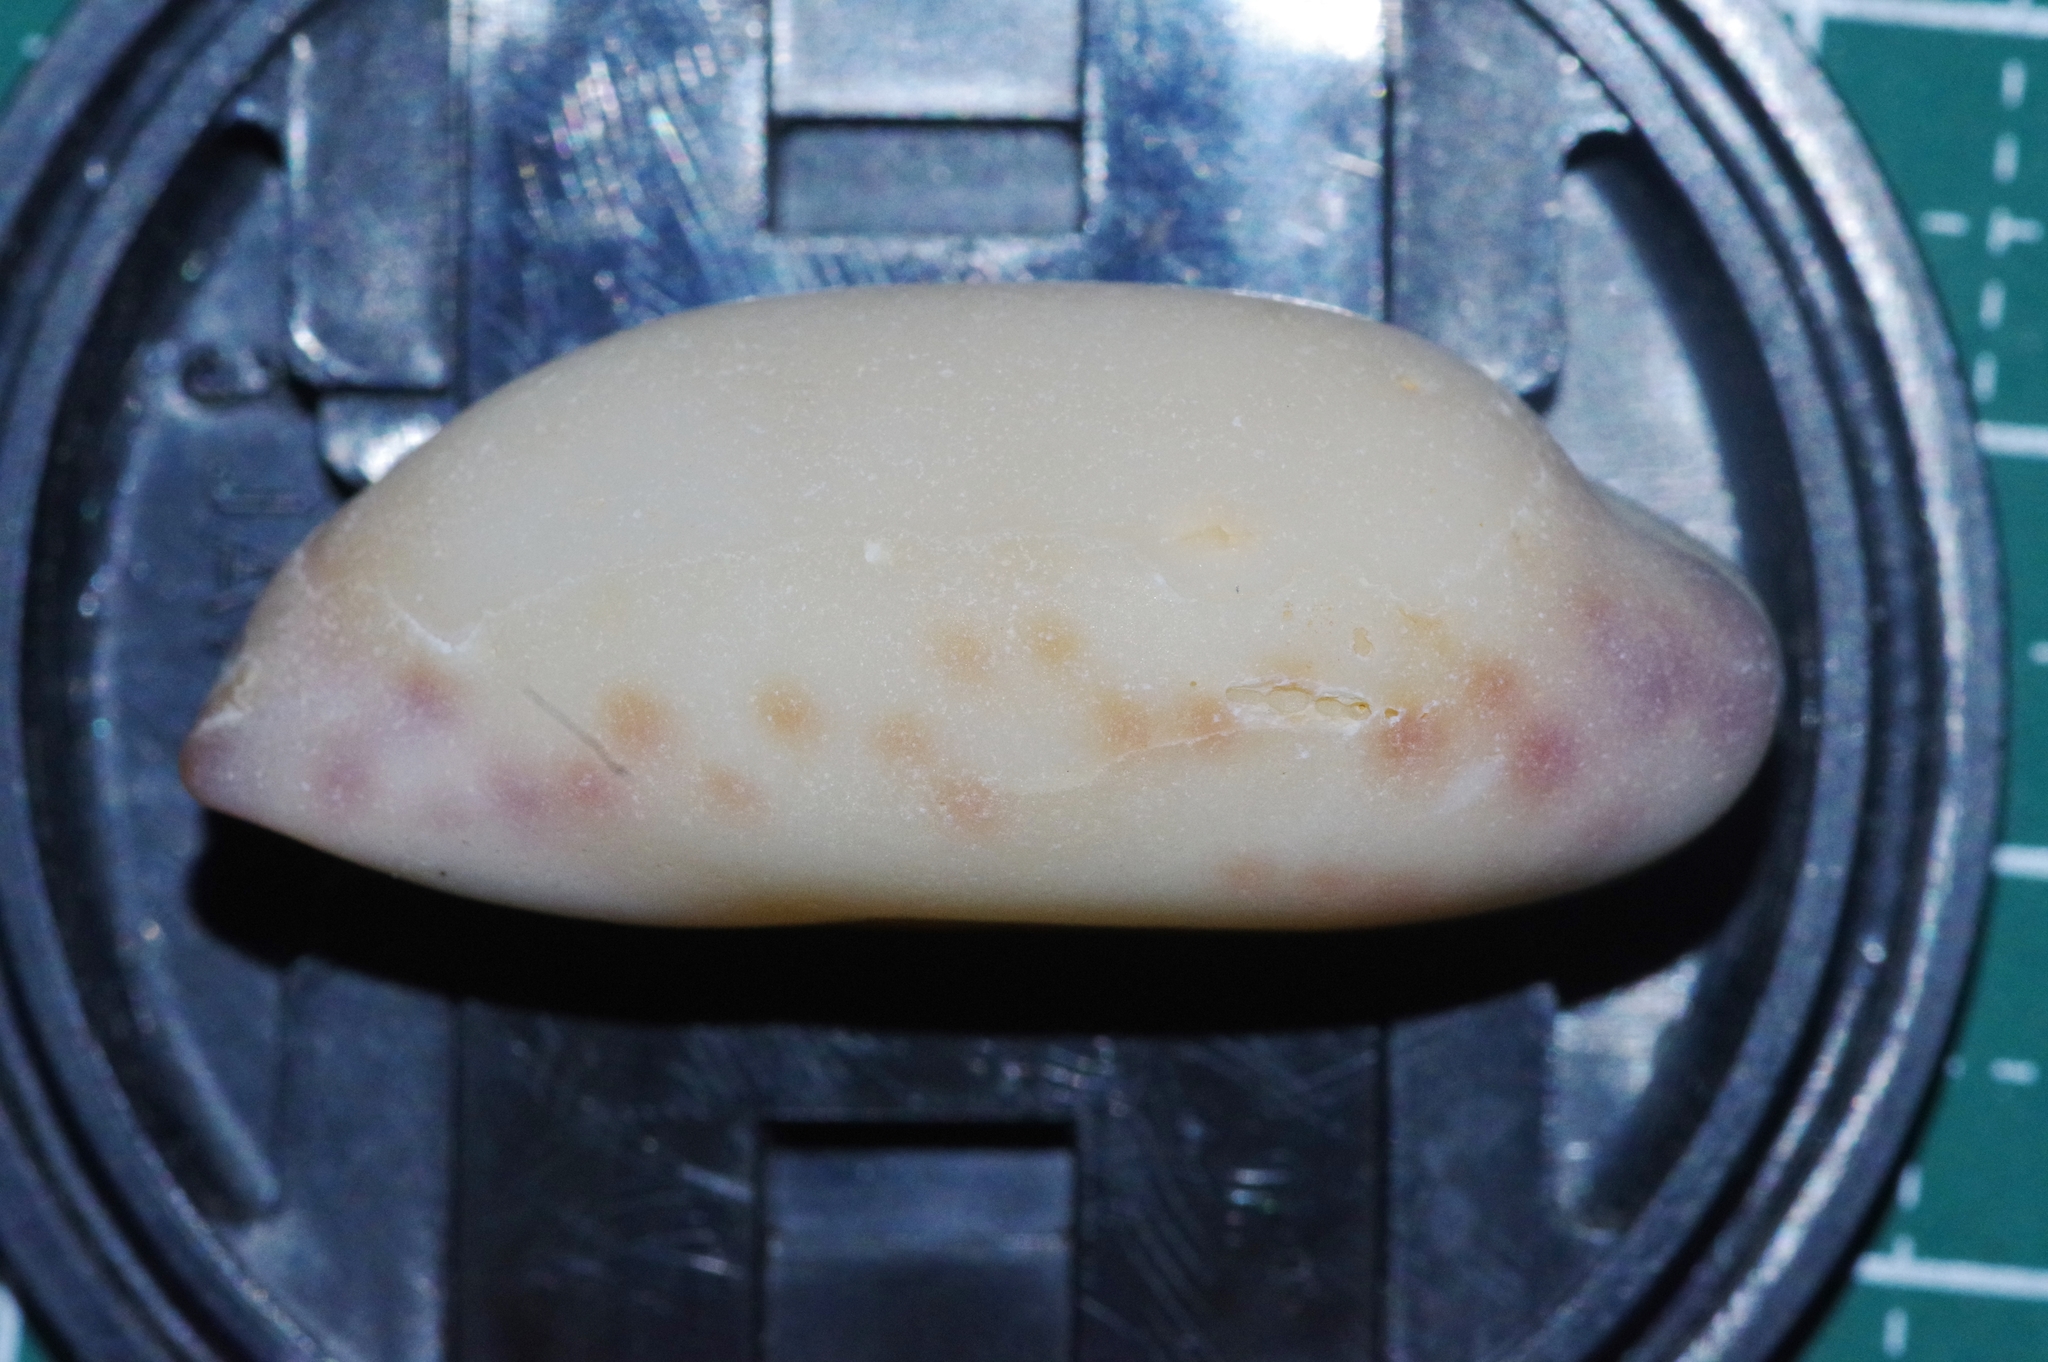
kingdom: Animalia
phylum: Mollusca
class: Gastropoda
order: Littorinimorpha
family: Cypraeidae
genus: Mauritia
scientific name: Mauritia scurra
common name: Jester cowrie
